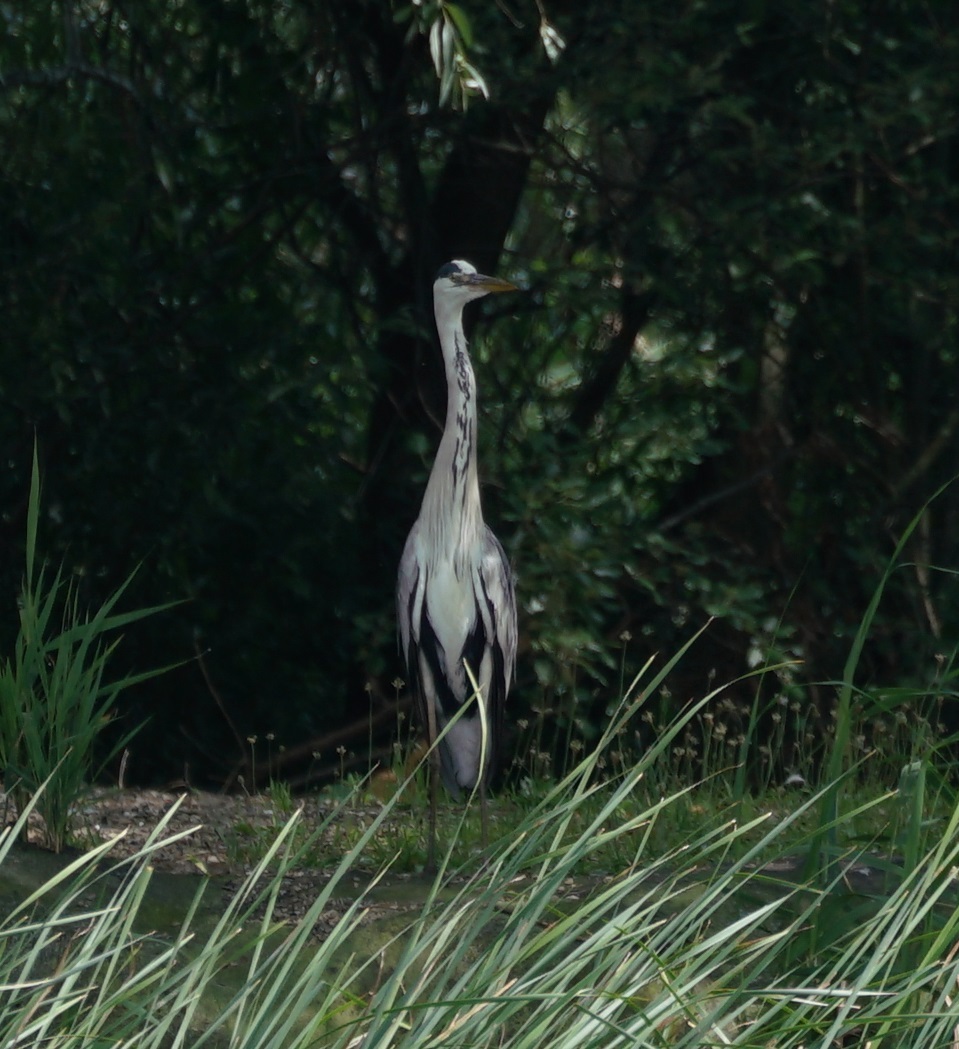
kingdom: Animalia
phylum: Chordata
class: Aves
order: Pelecaniformes
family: Ardeidae
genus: Ardea
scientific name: Ardea cinerea
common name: Grey heron
